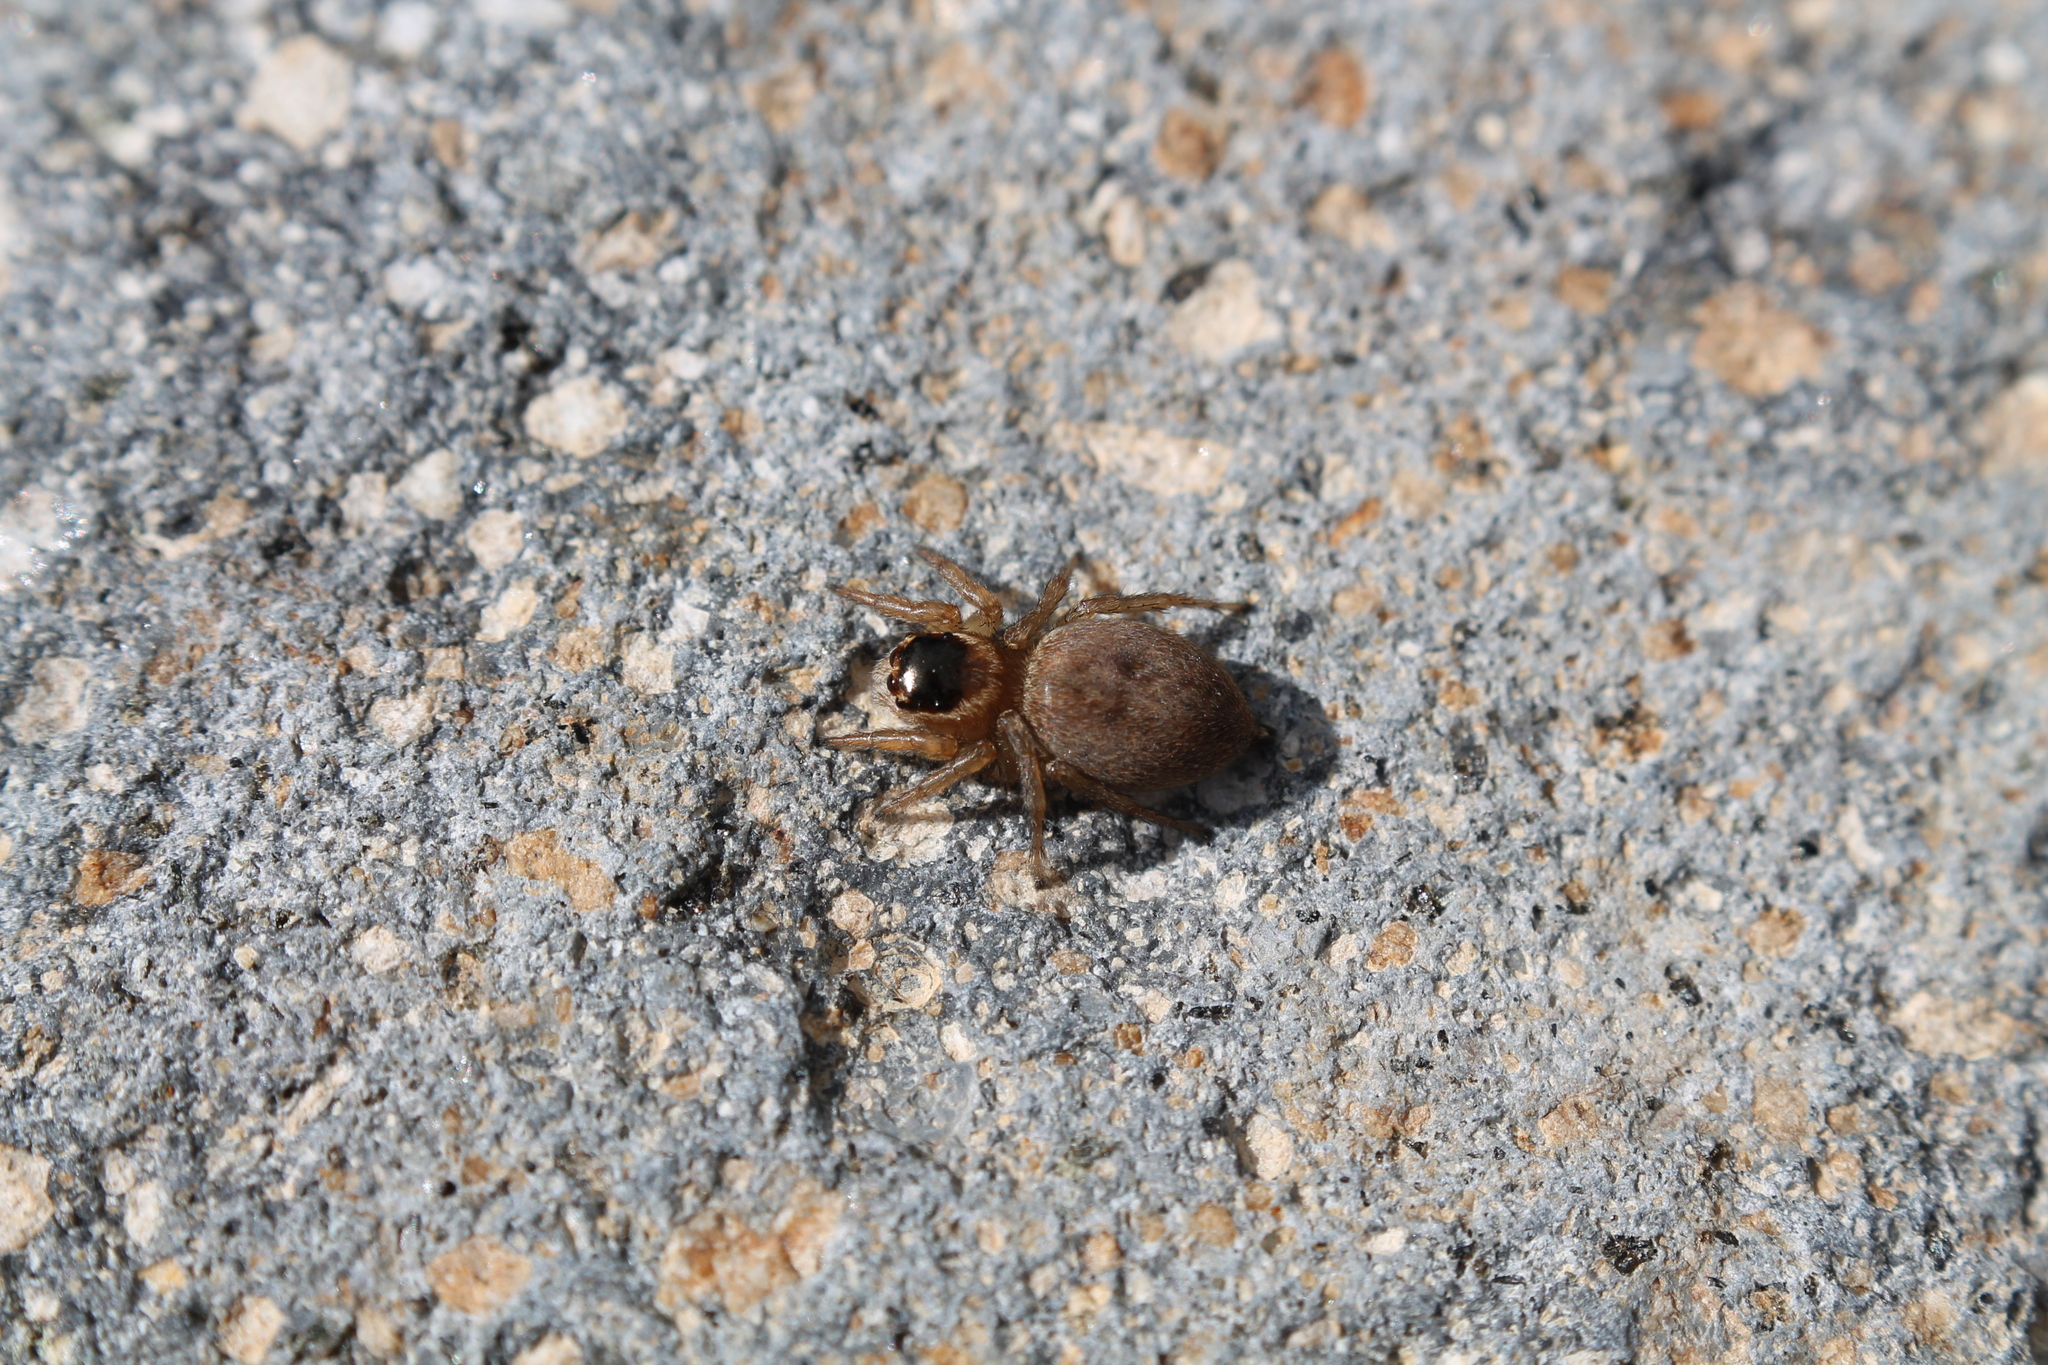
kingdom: Animalia
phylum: Arthropoda
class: Arachnida
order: Araneae
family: Salticidae
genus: Maratus
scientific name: Maratus griseus
